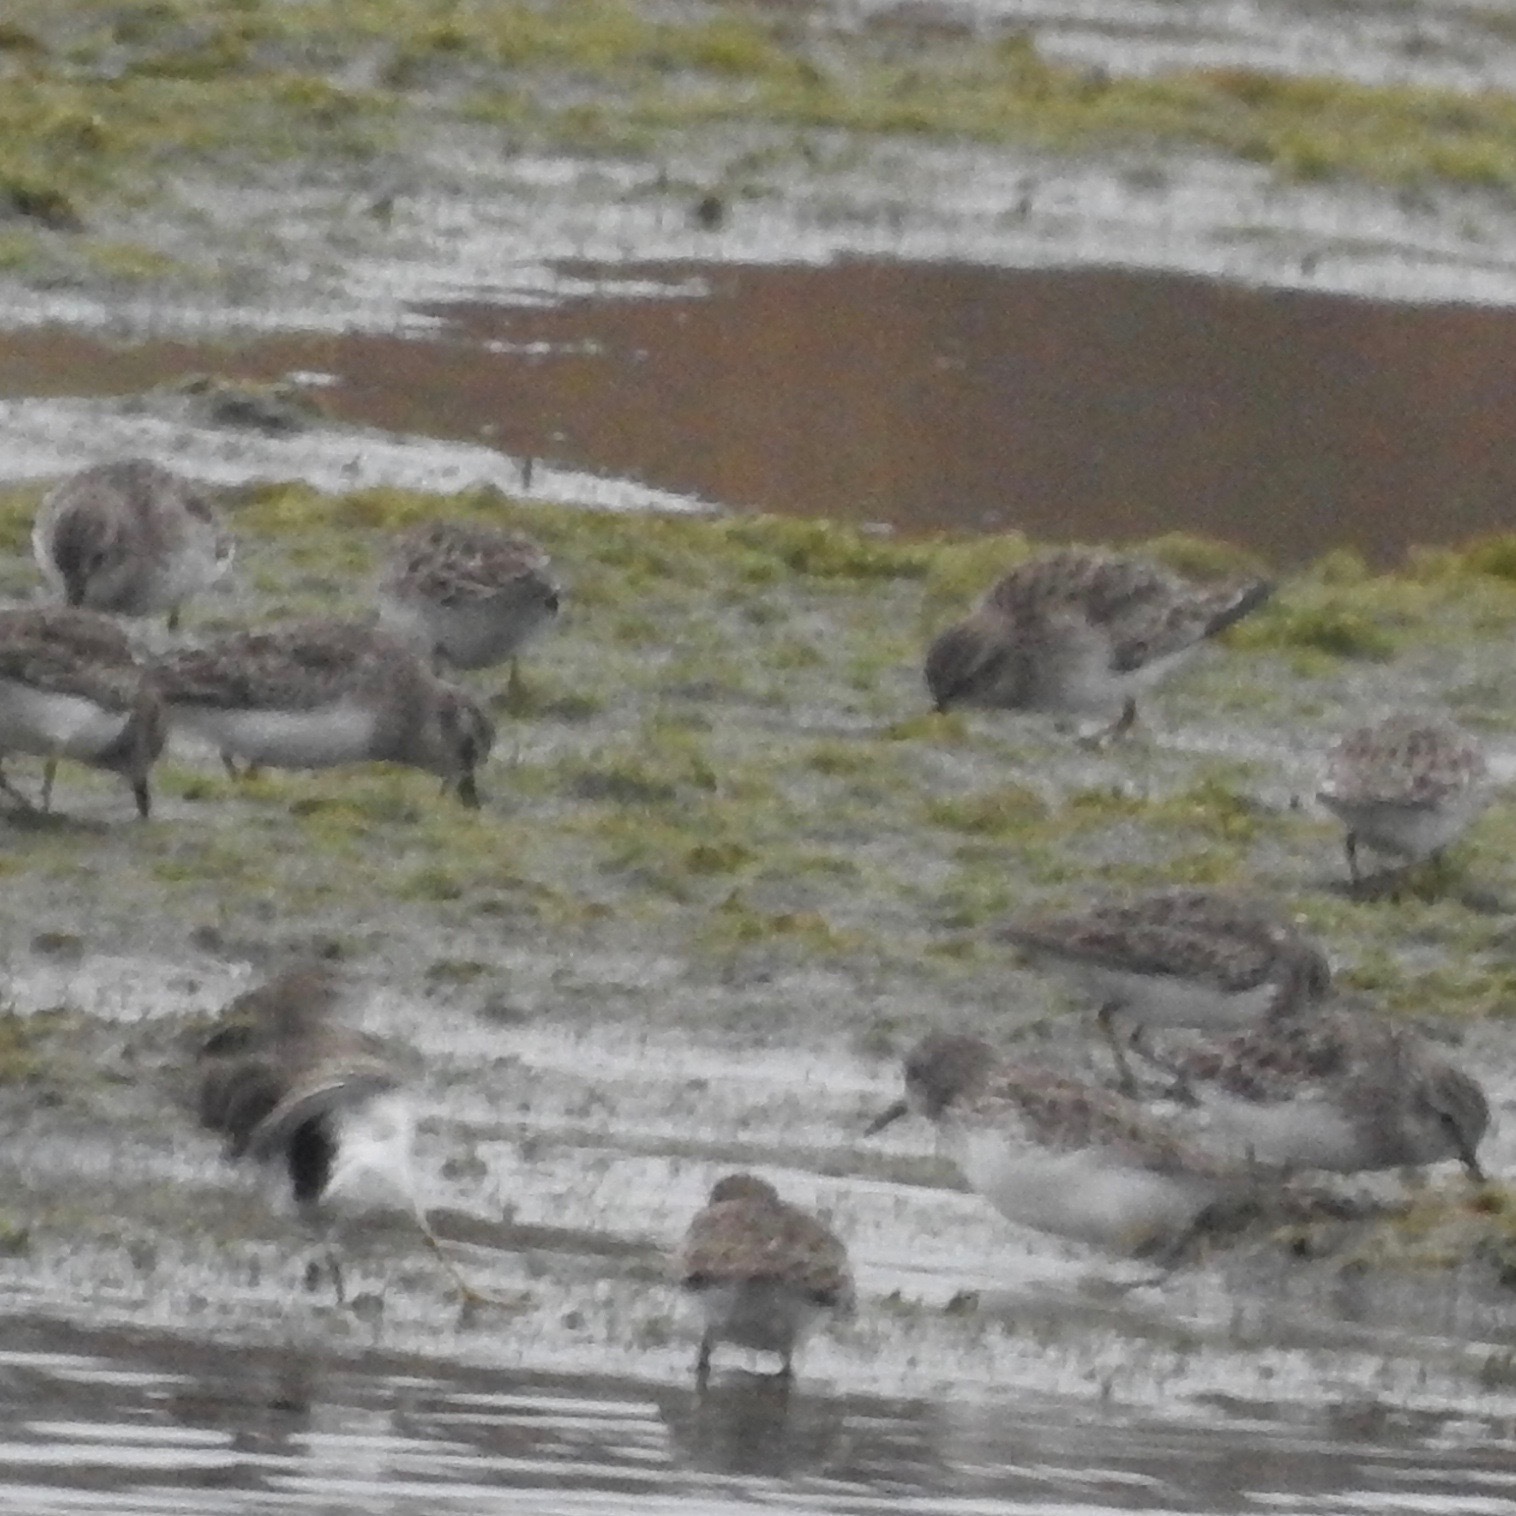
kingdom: Animalia
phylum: Chordata
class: Aves
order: Charadriiformes
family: Scolopacidae
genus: Calidris
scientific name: Calidris minutilla
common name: Least sandpiper
